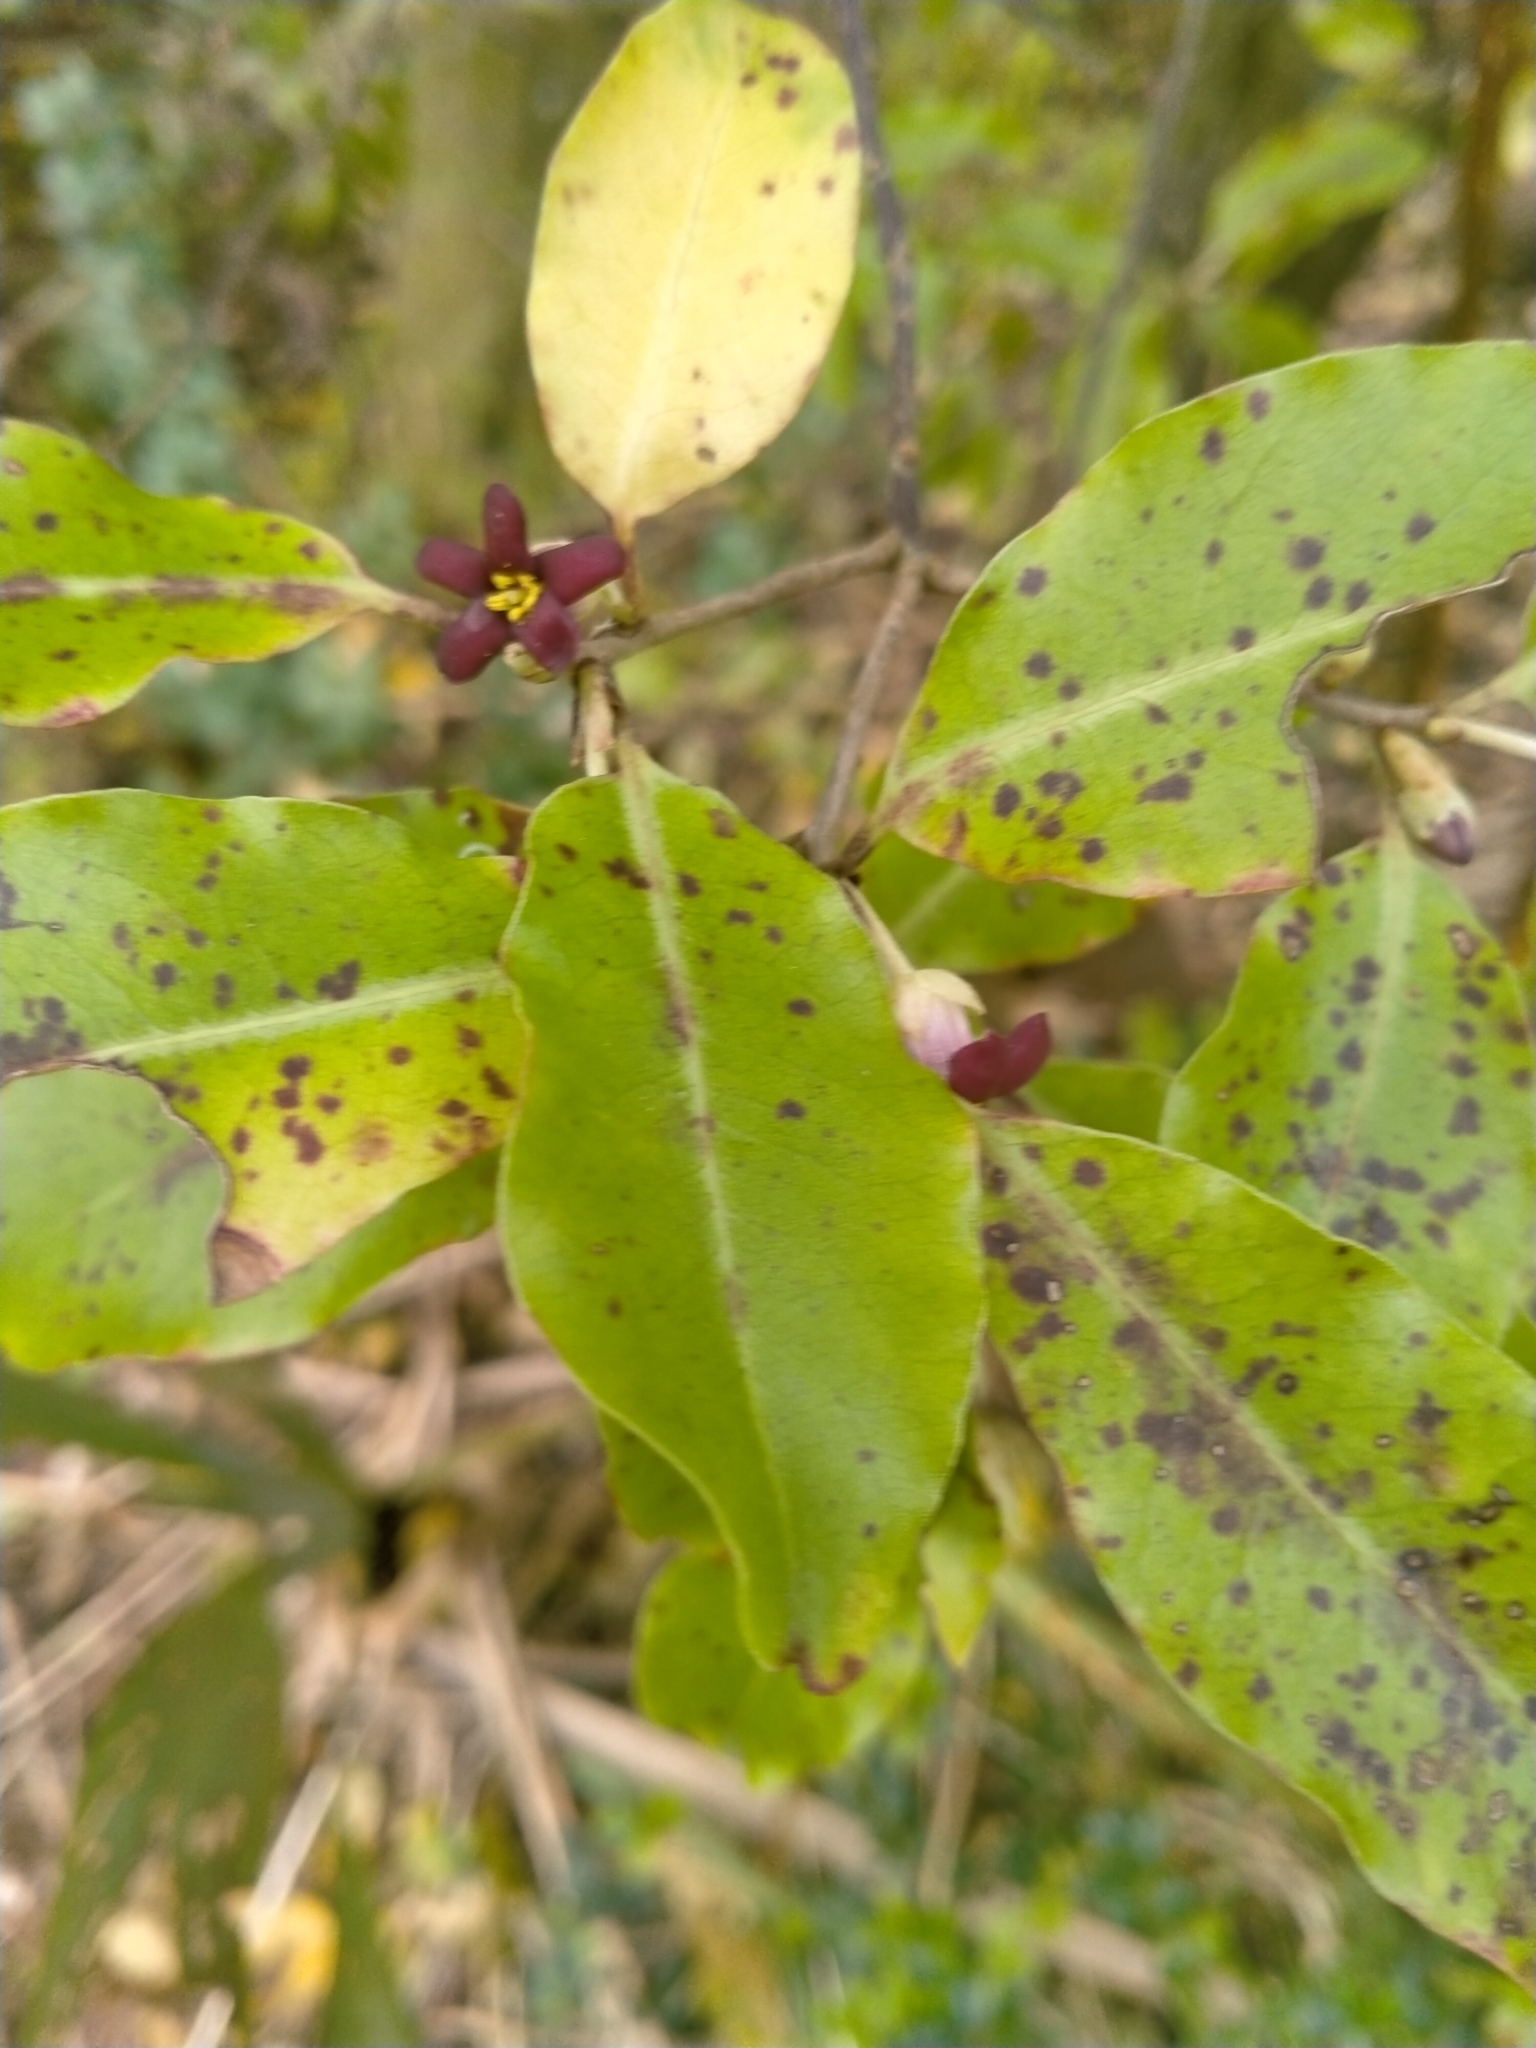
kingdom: Plantae
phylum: Tracheophyta
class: Magnoliopsida
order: Apiales
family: Pittosporaceae
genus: Pittosporum
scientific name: Pittosporum tenuifolium
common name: Kohuhu
